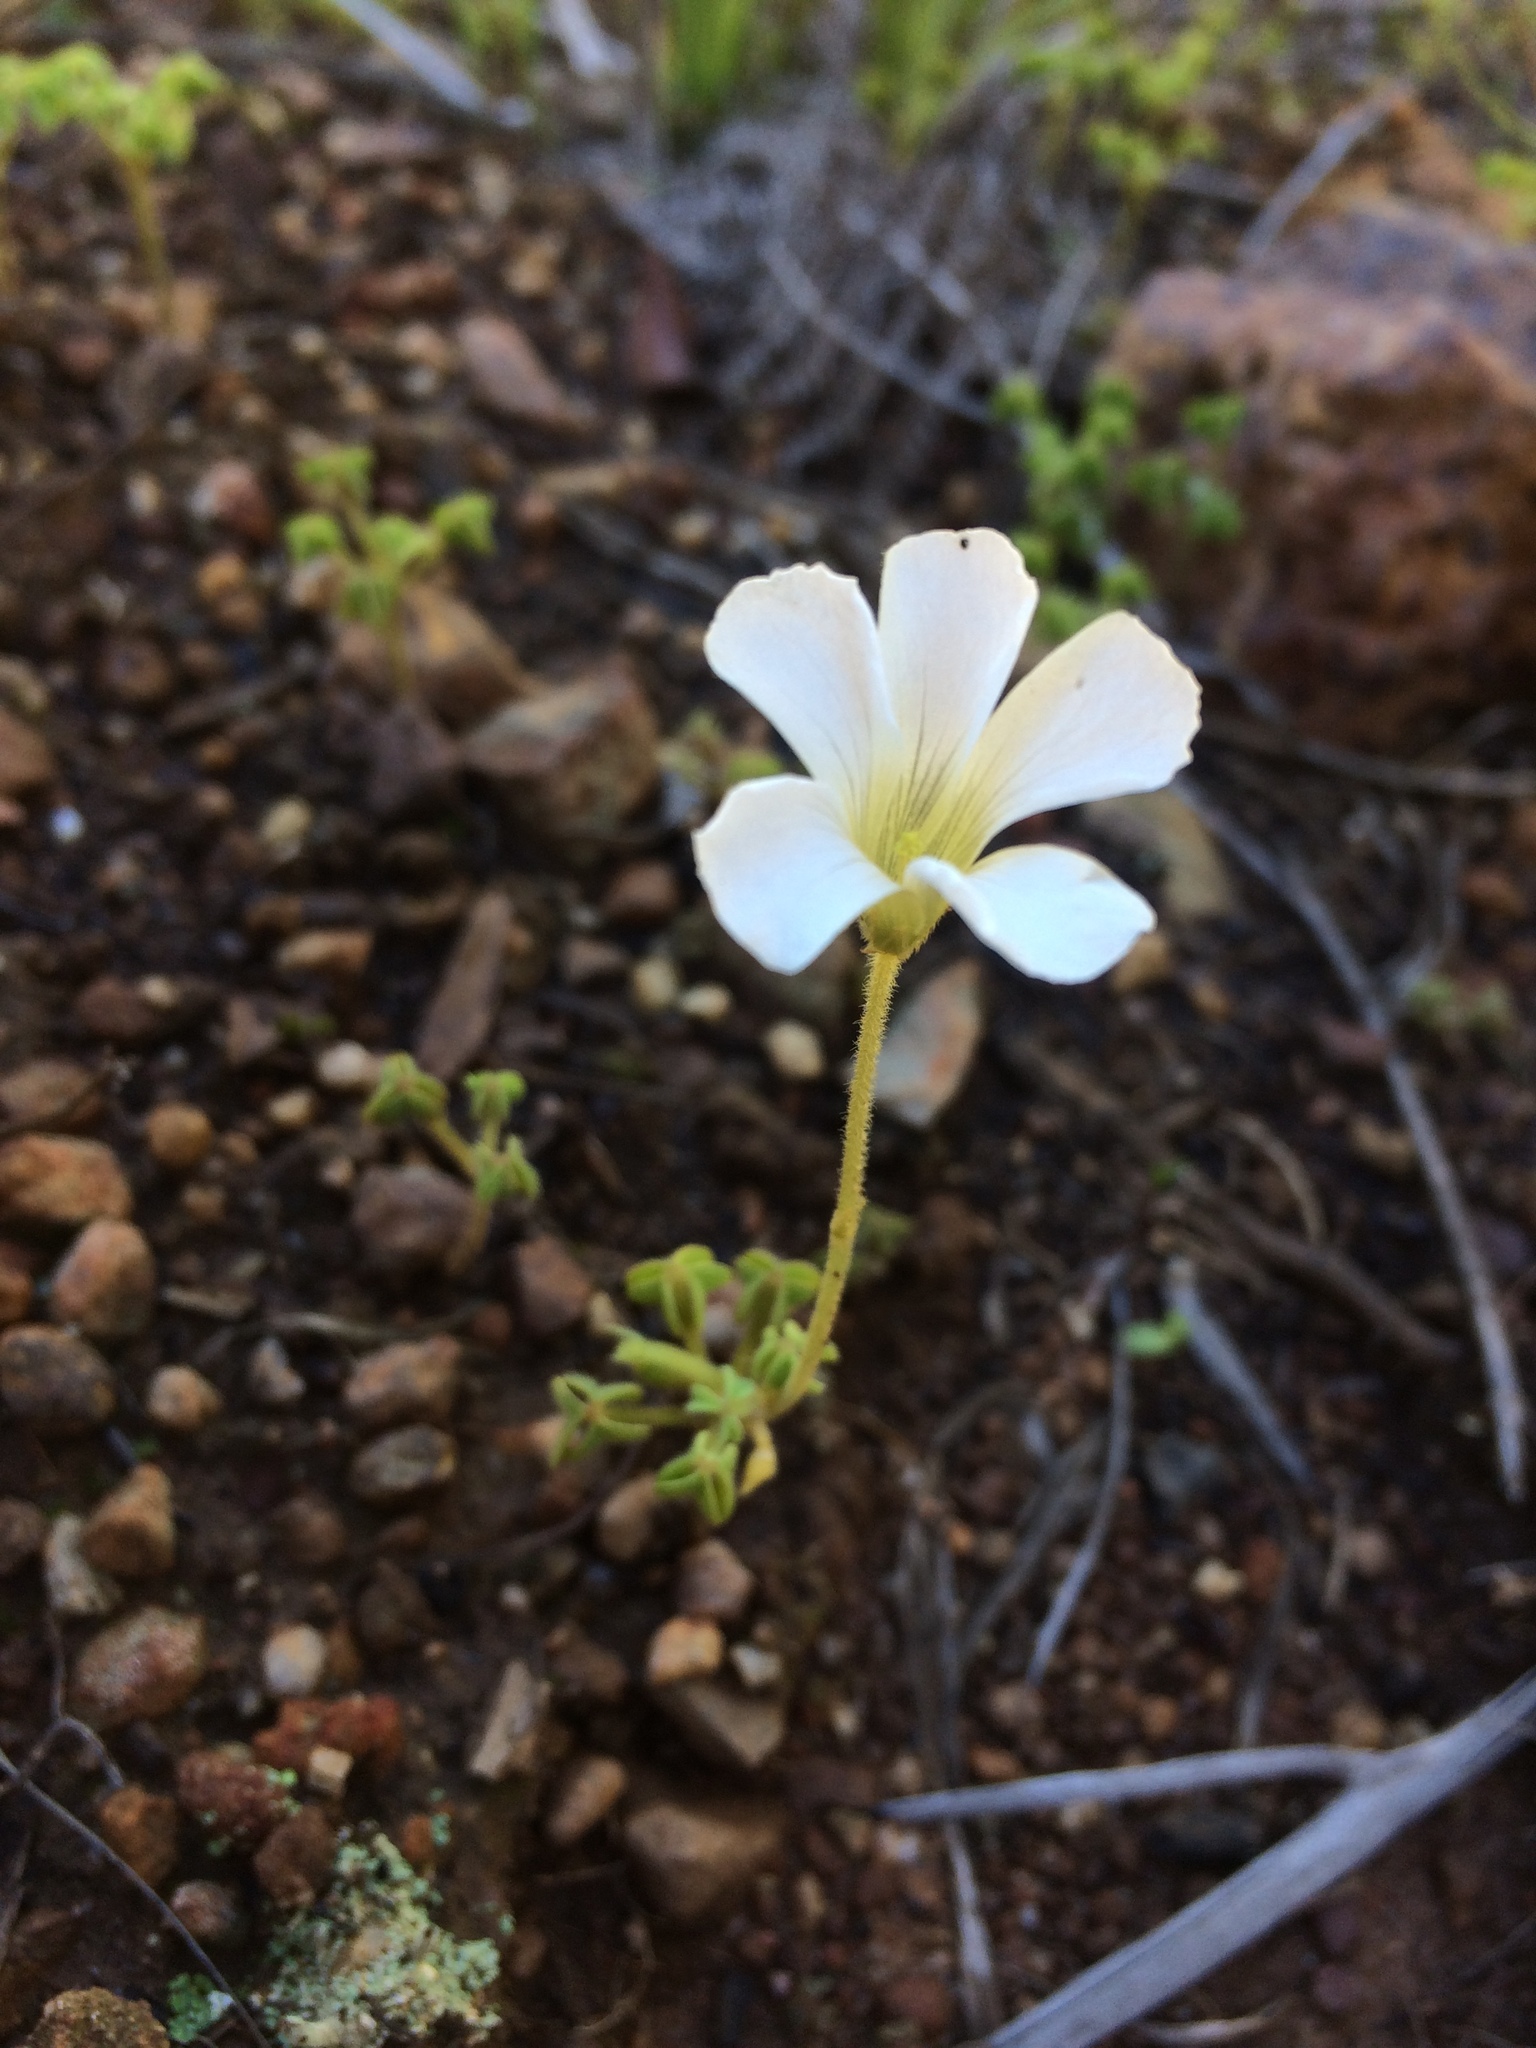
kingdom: Plantae
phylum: Tracheophyta
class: Magnoliopsida
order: Oxalidales
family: Oxalidaceae
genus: Oxalis
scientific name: Oxalis lanata
